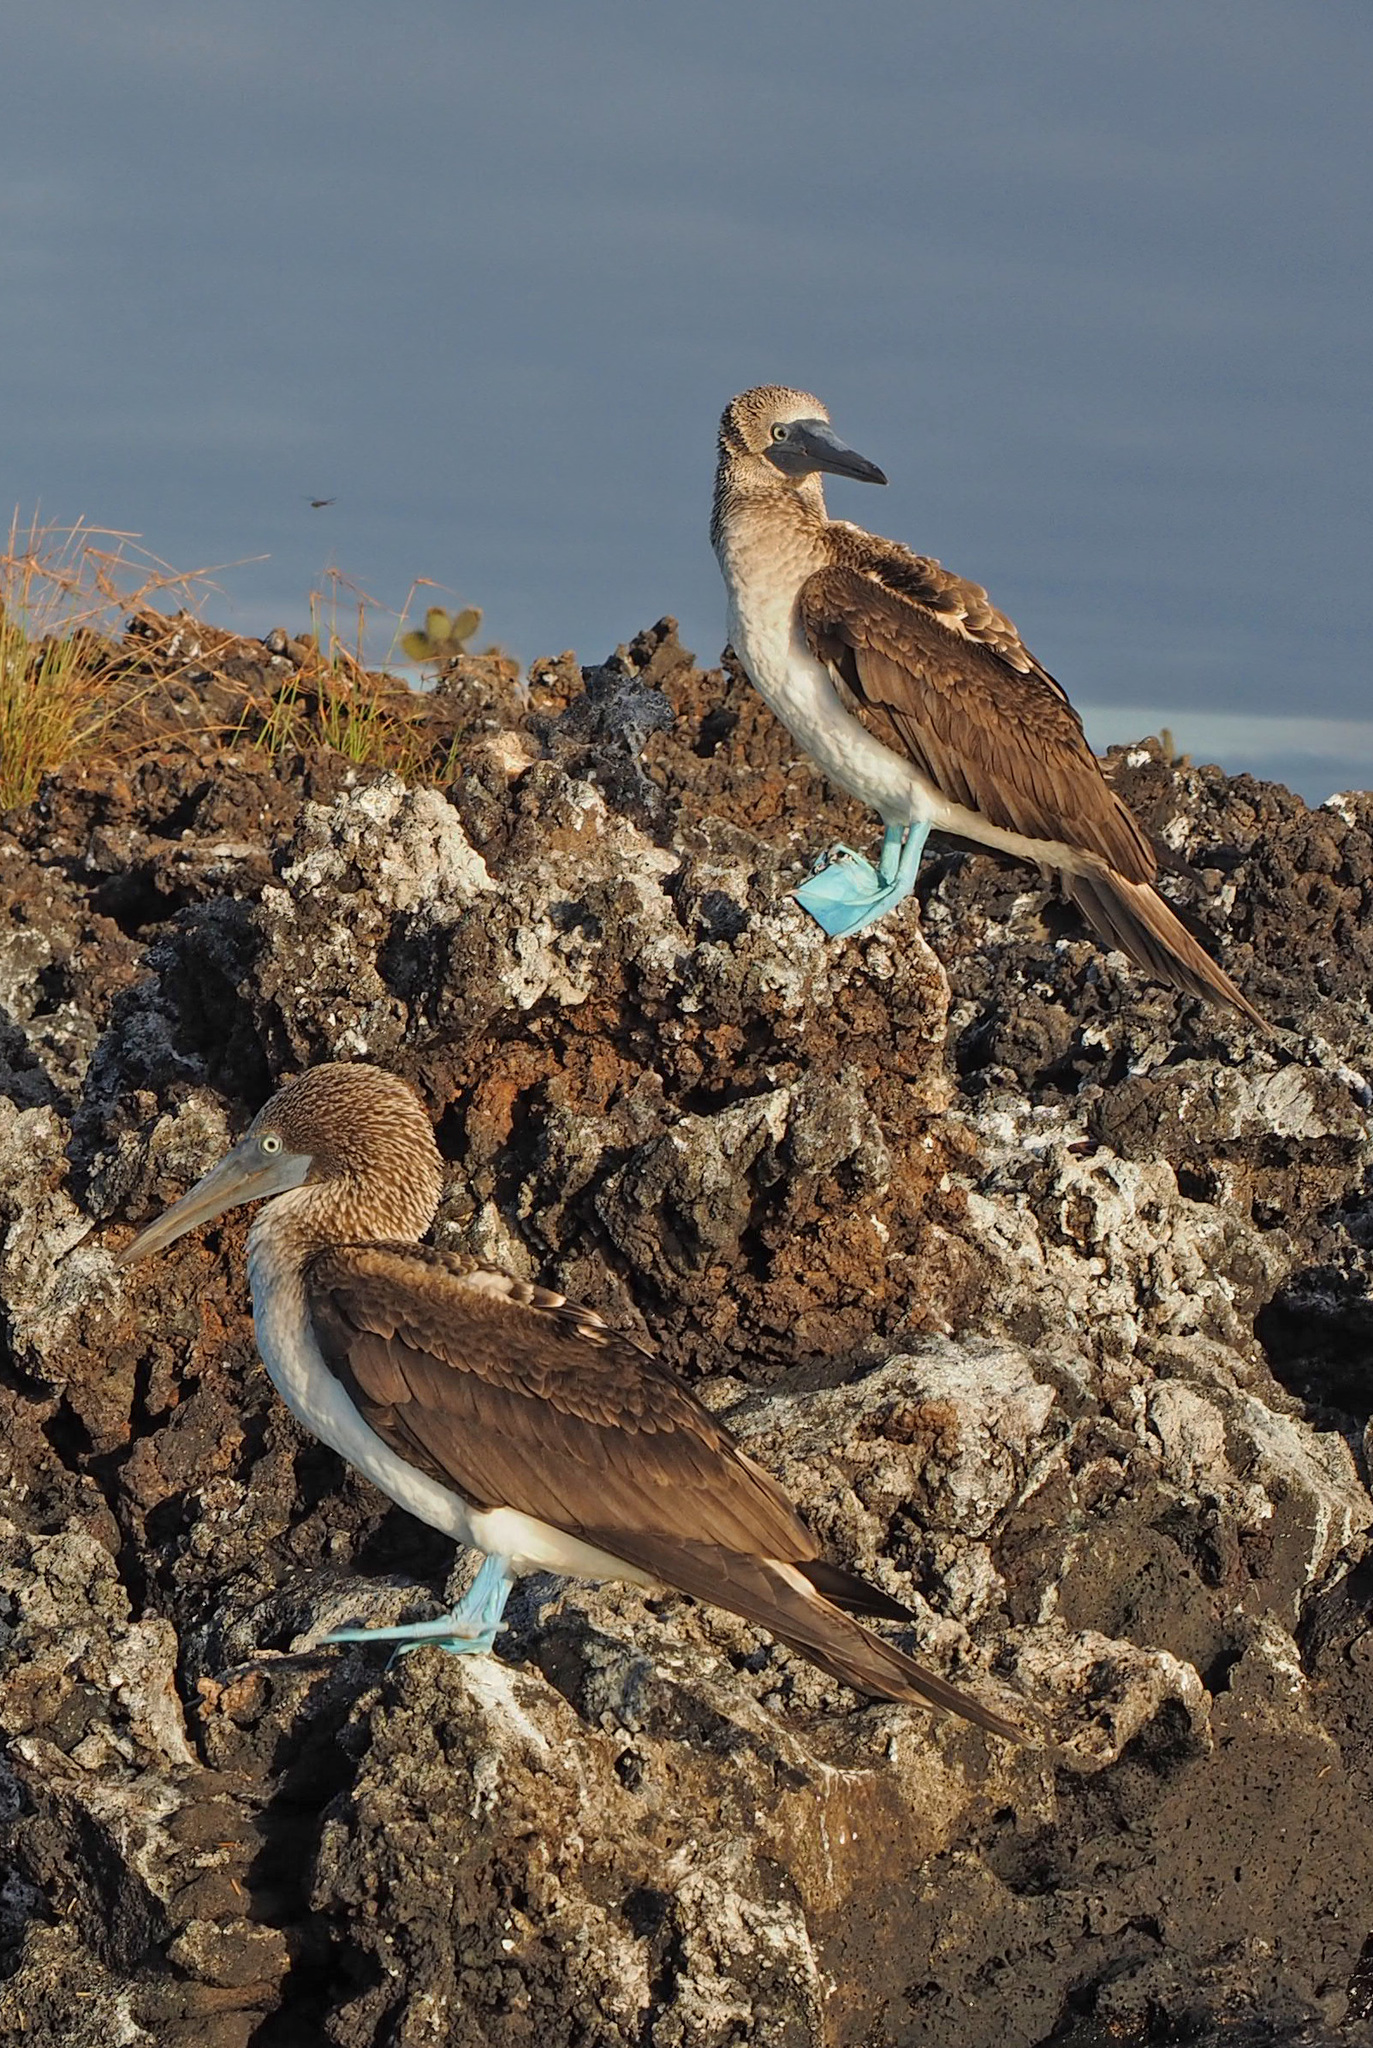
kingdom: Animalia
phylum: Chordata
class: Aves
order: Suliformes
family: Sulidae
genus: Sula
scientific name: Sula nebouxii
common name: Blue-footed booby
